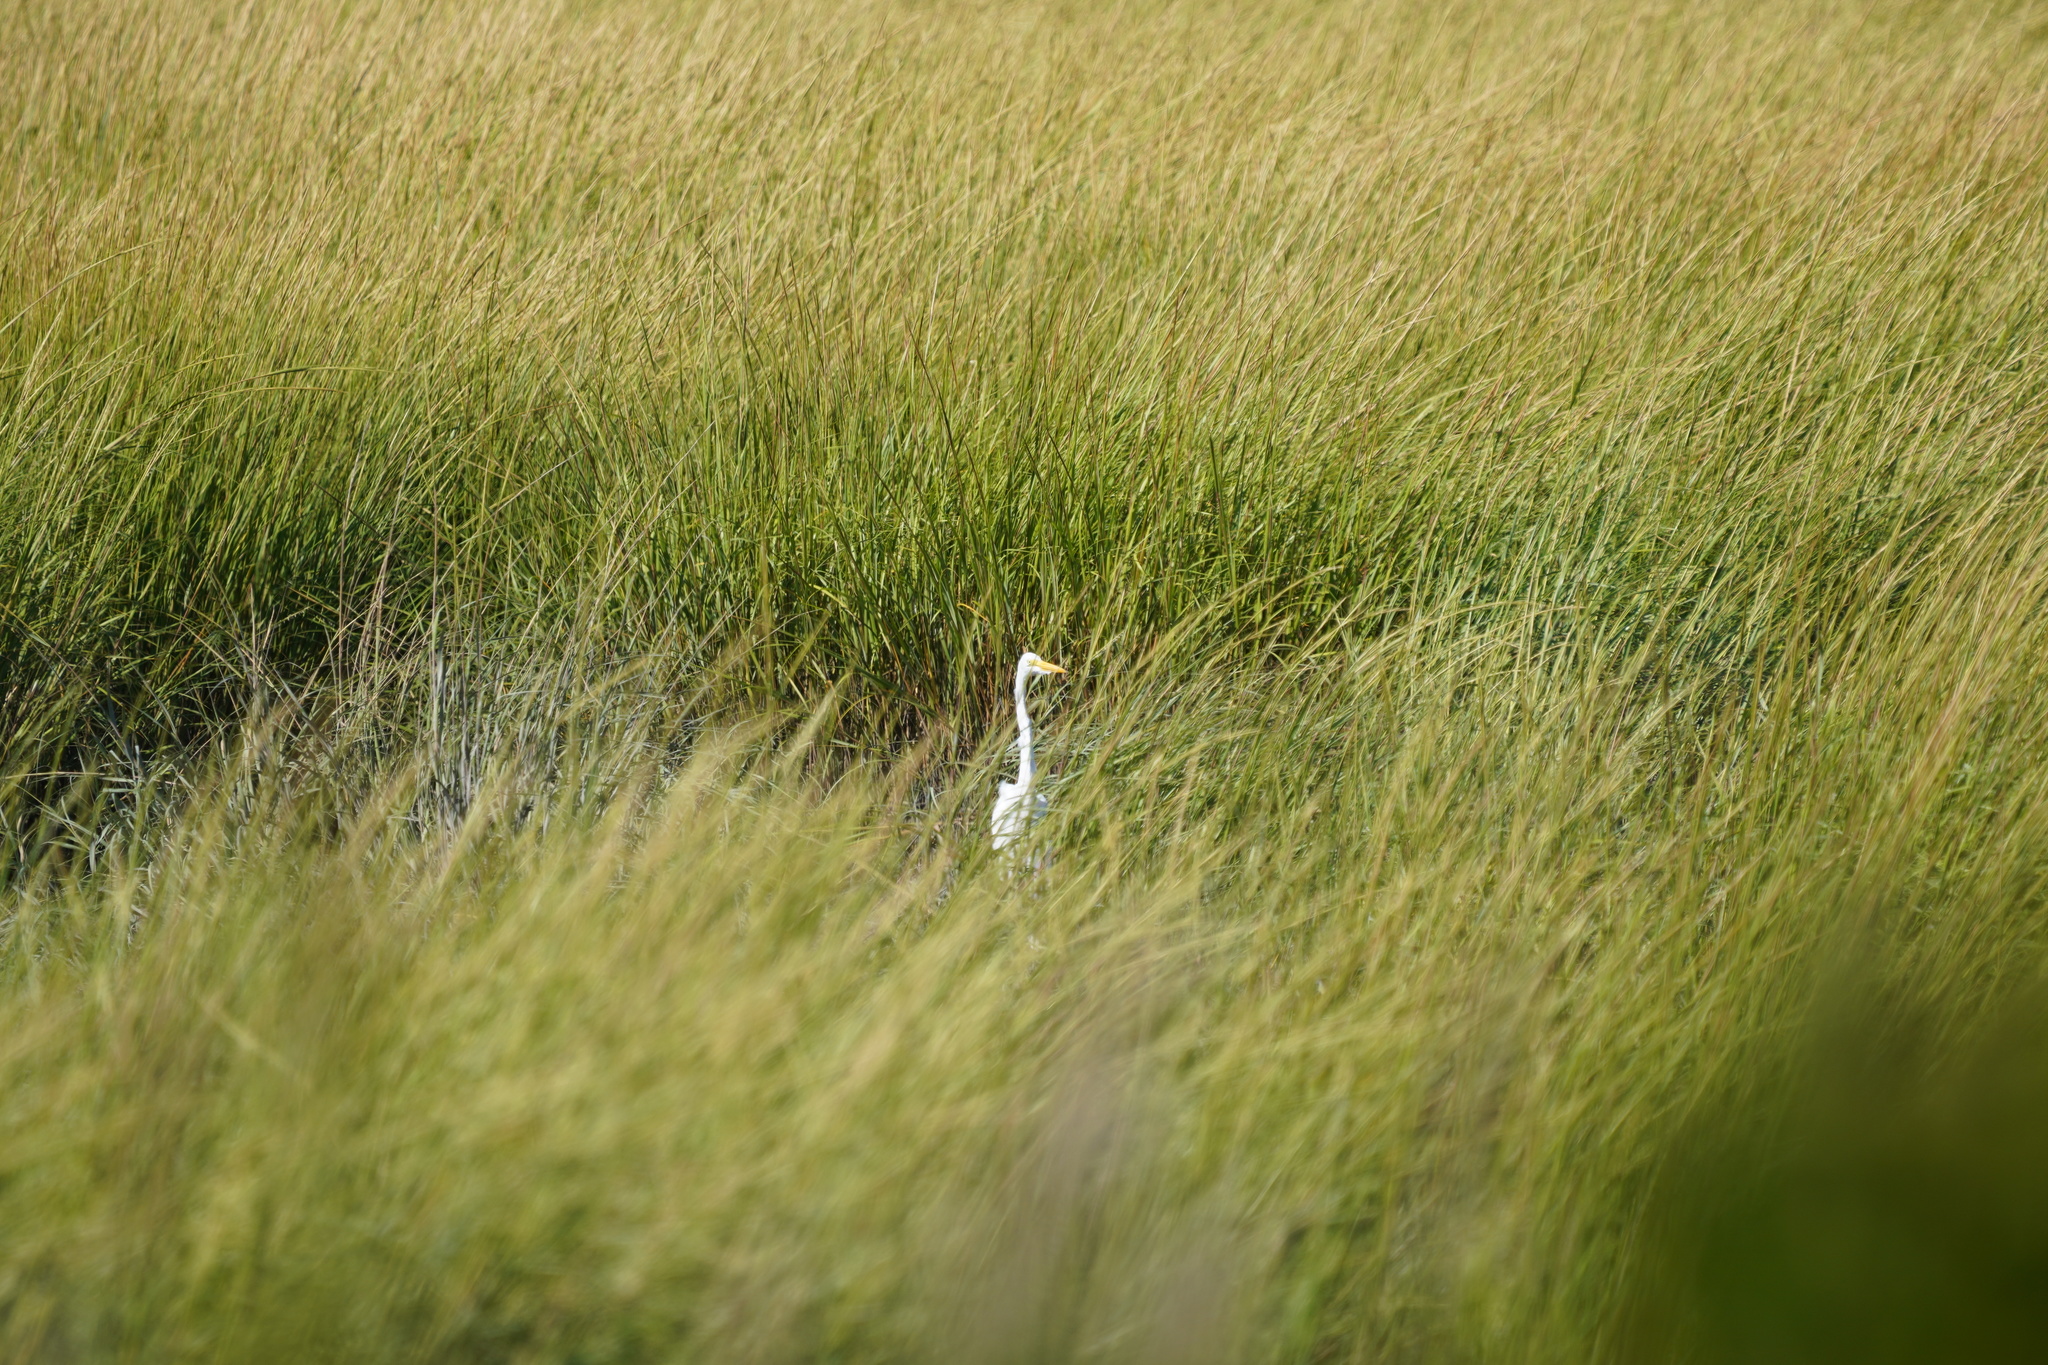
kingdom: Animalia
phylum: Chordata
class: Aves
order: Pelecaniformes
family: Ardeidae
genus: Ardea
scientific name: Ardea alba
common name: Great egret
